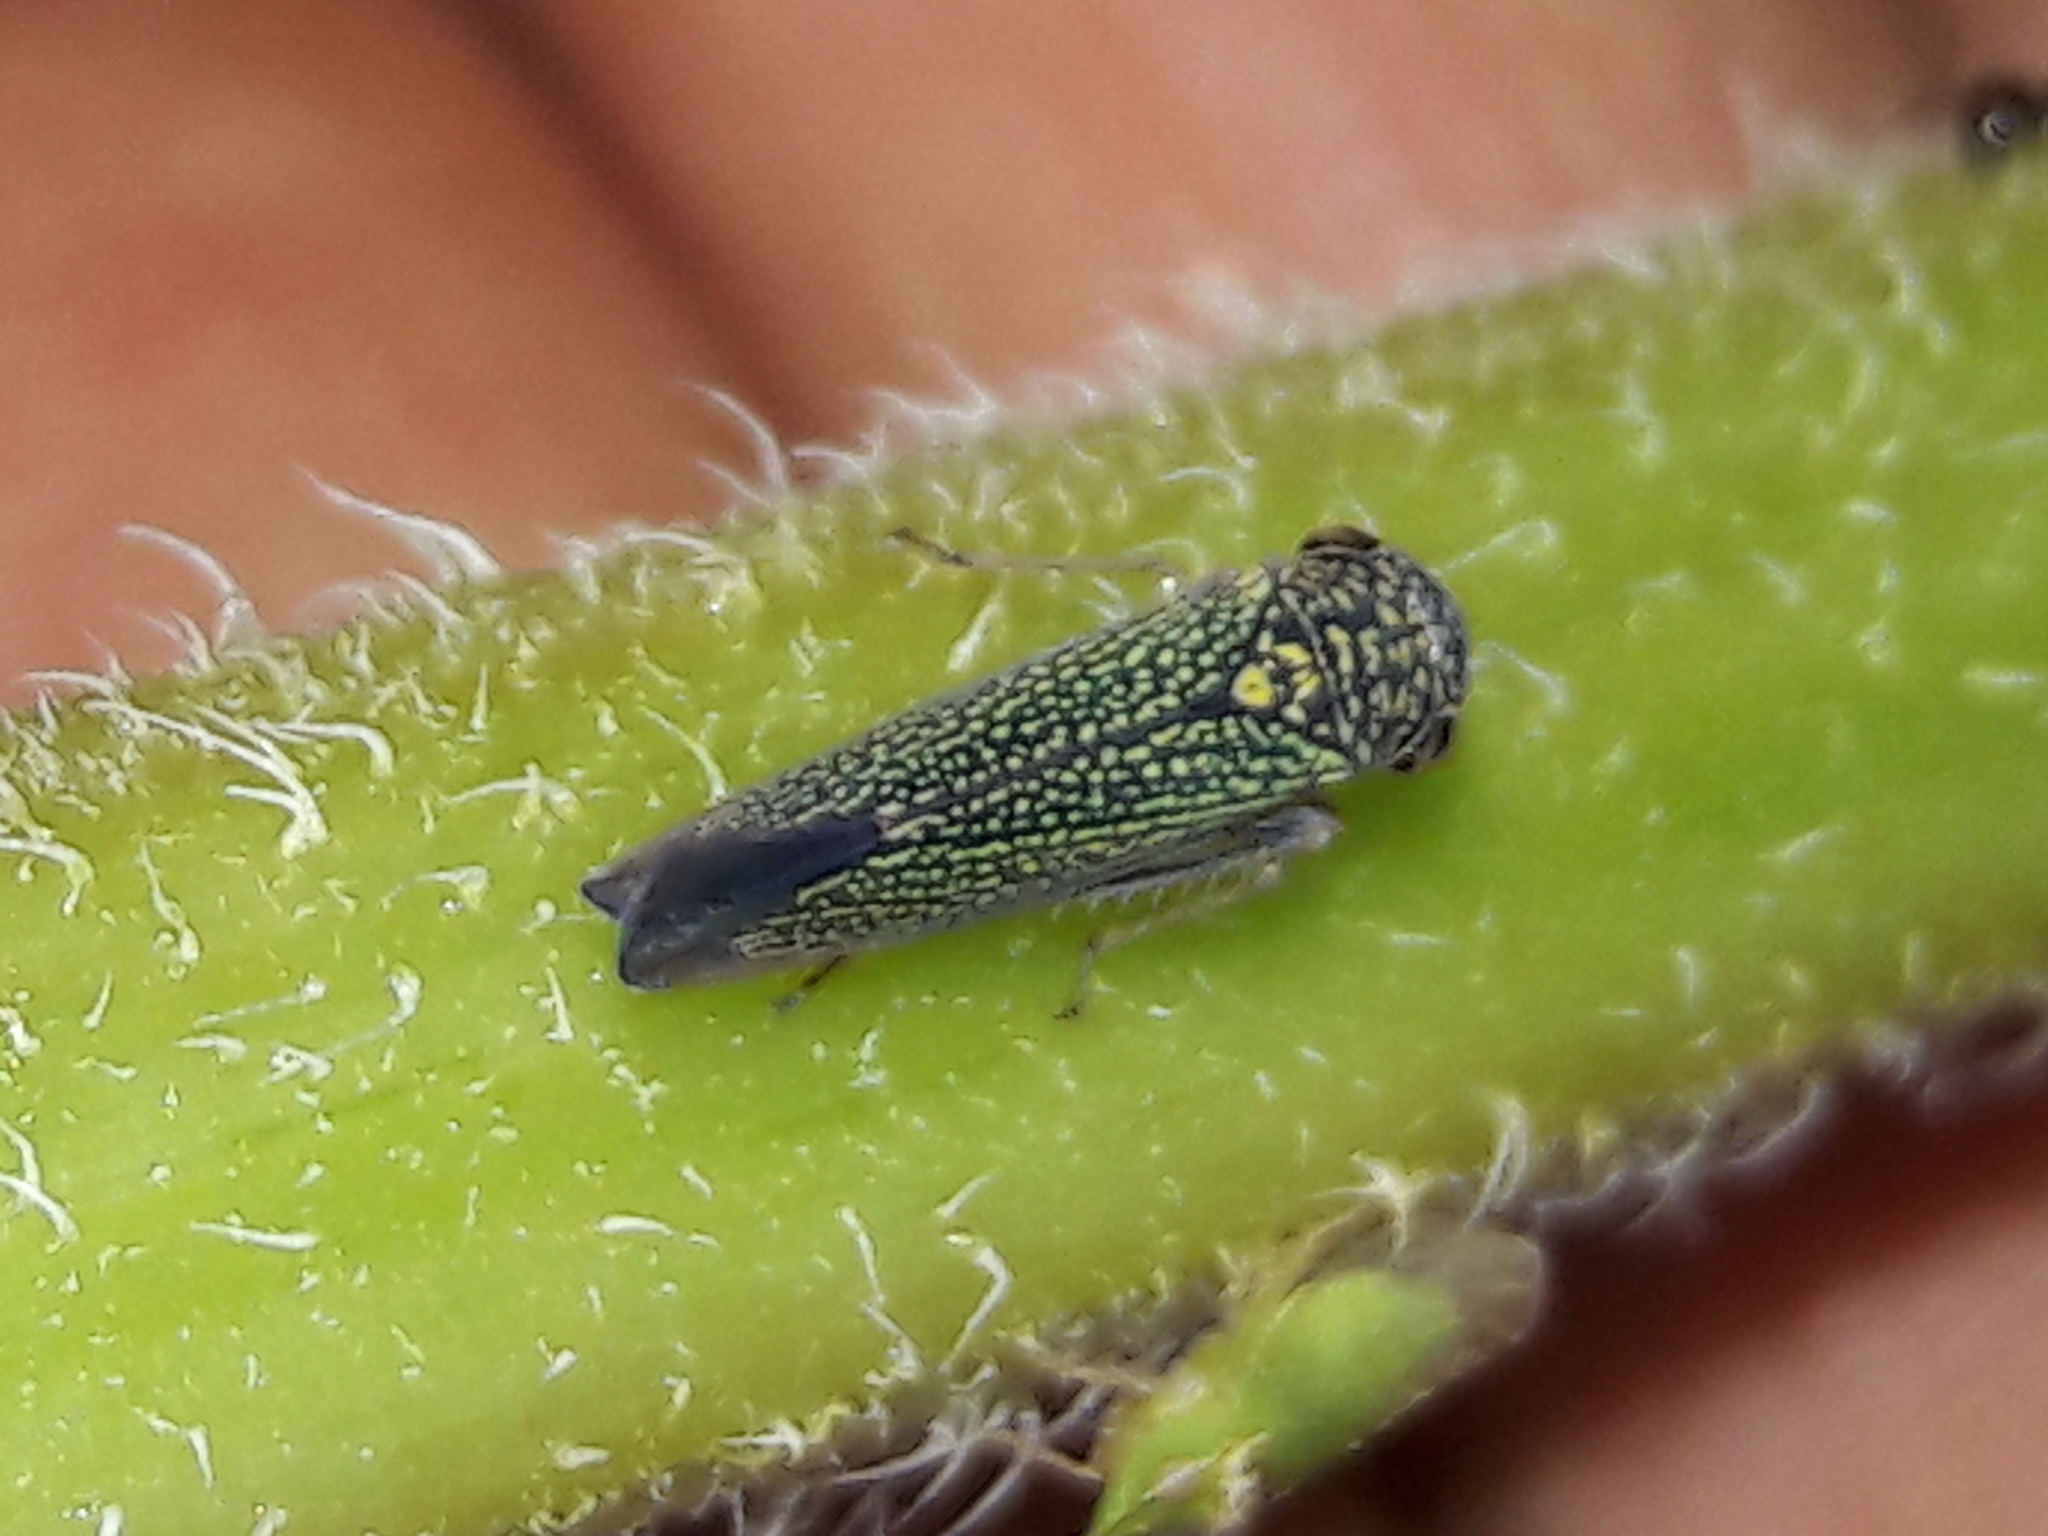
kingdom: Animalia
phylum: Arthropoda
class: Insecta
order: Hemiptera
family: Cicadellidae
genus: Macugonalia
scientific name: Macugonalia cavifrons
